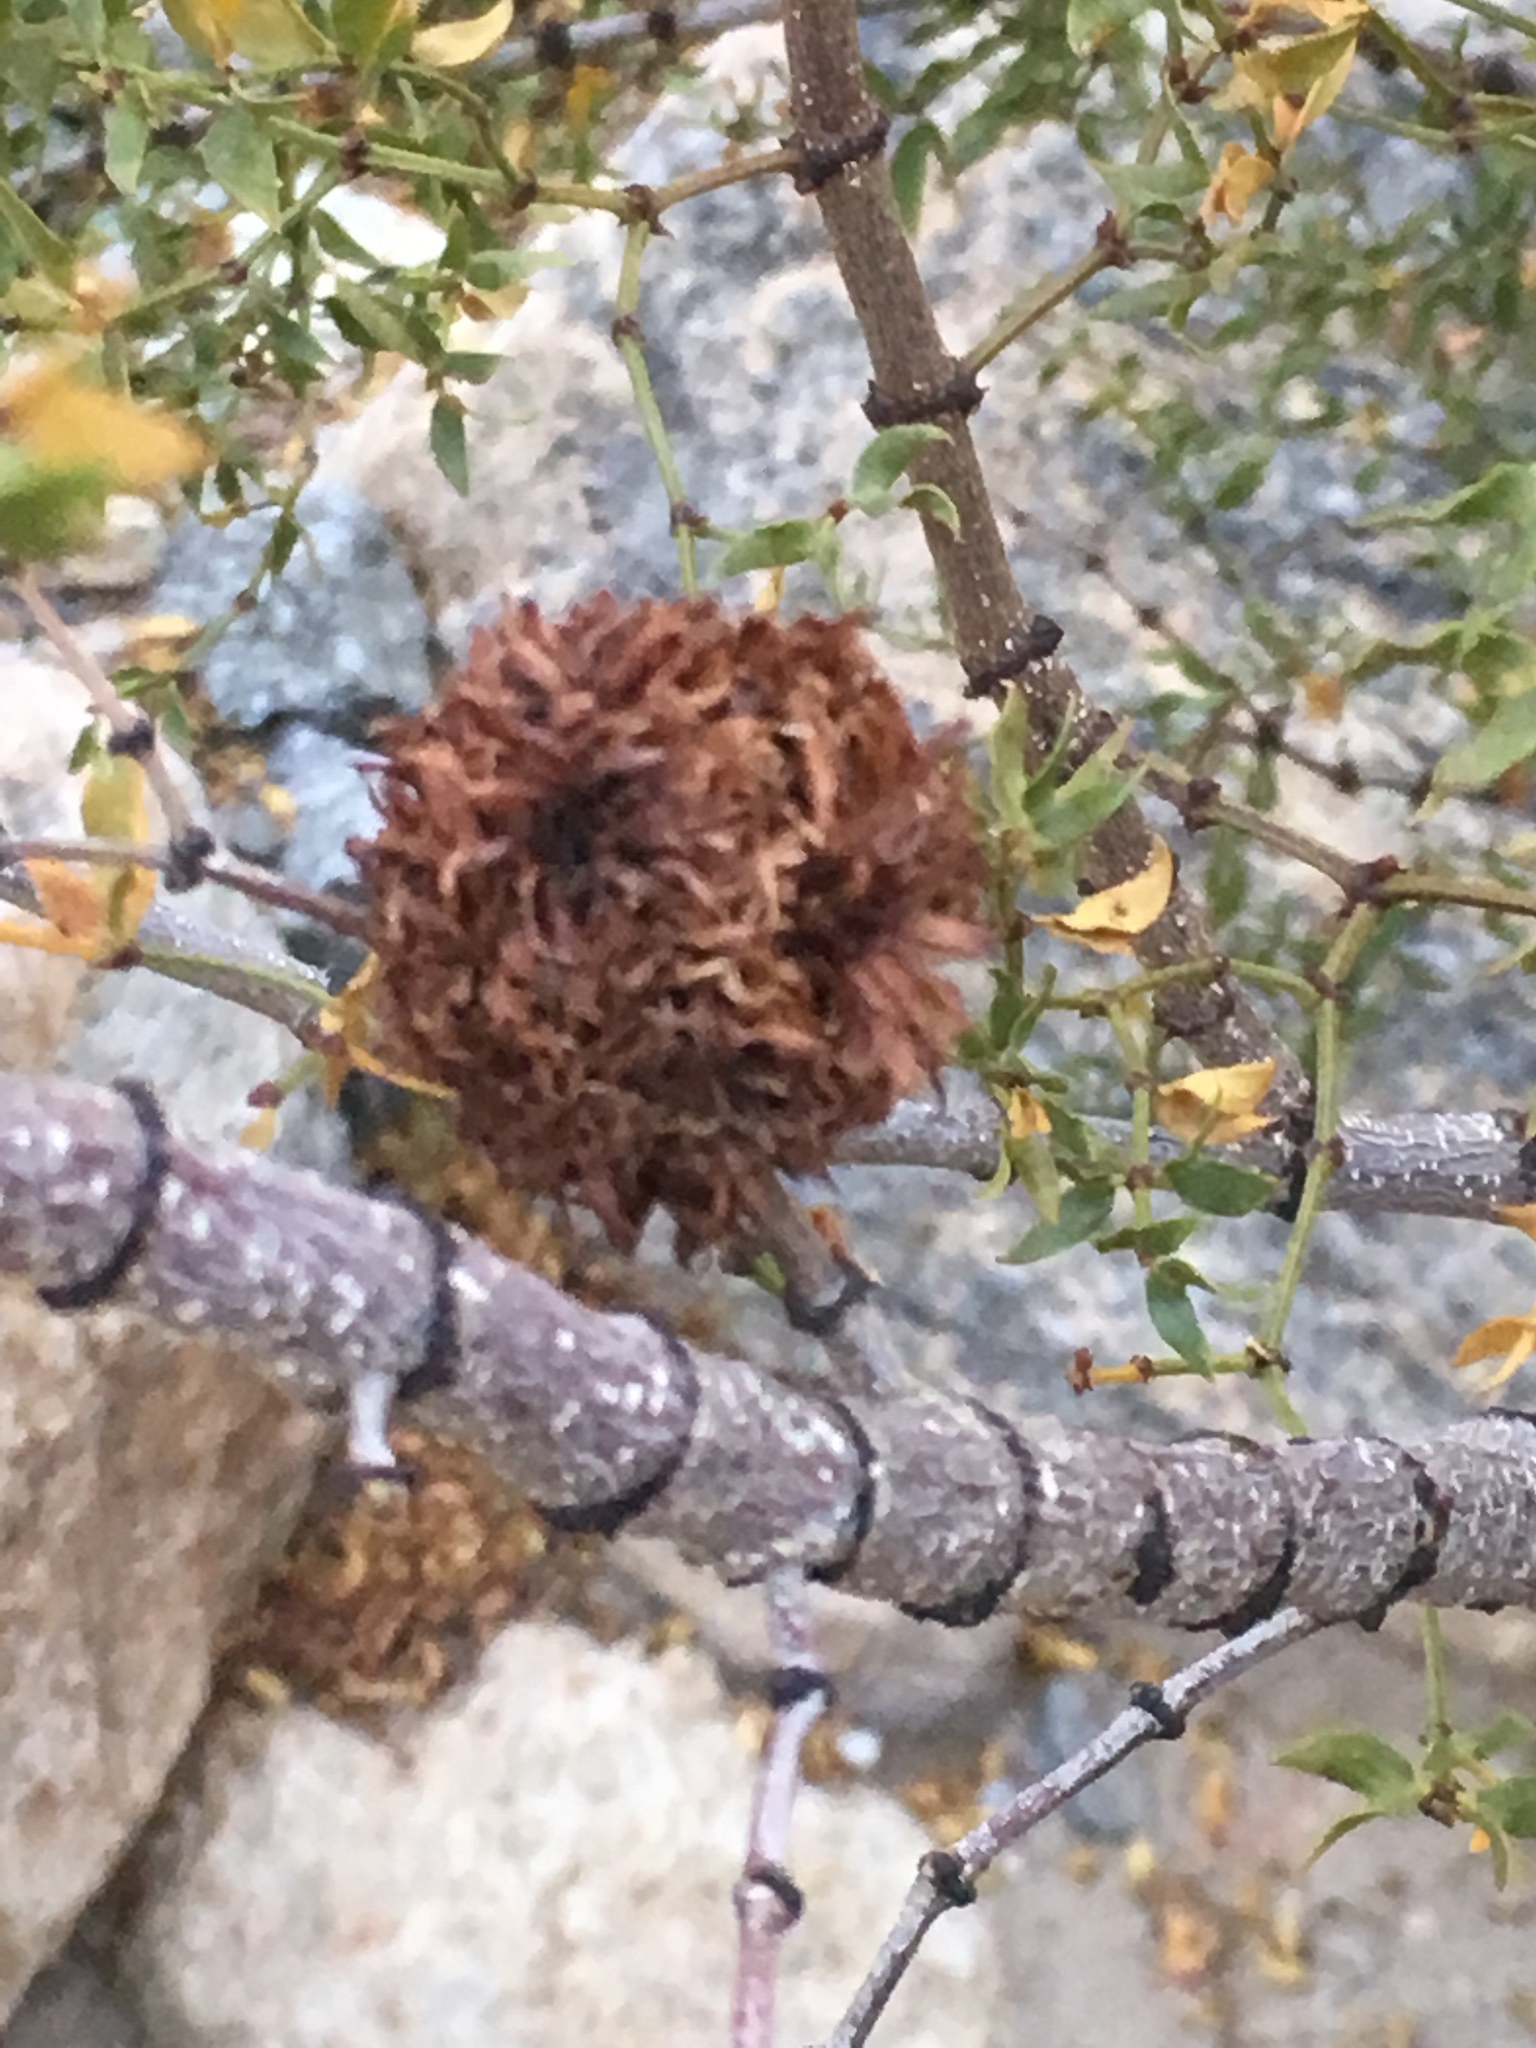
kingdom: Animalia
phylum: Arthropoda
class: Insecta
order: Diptera
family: Cecidomyiidae
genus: Asphondylia
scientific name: Asphondylia auripila
